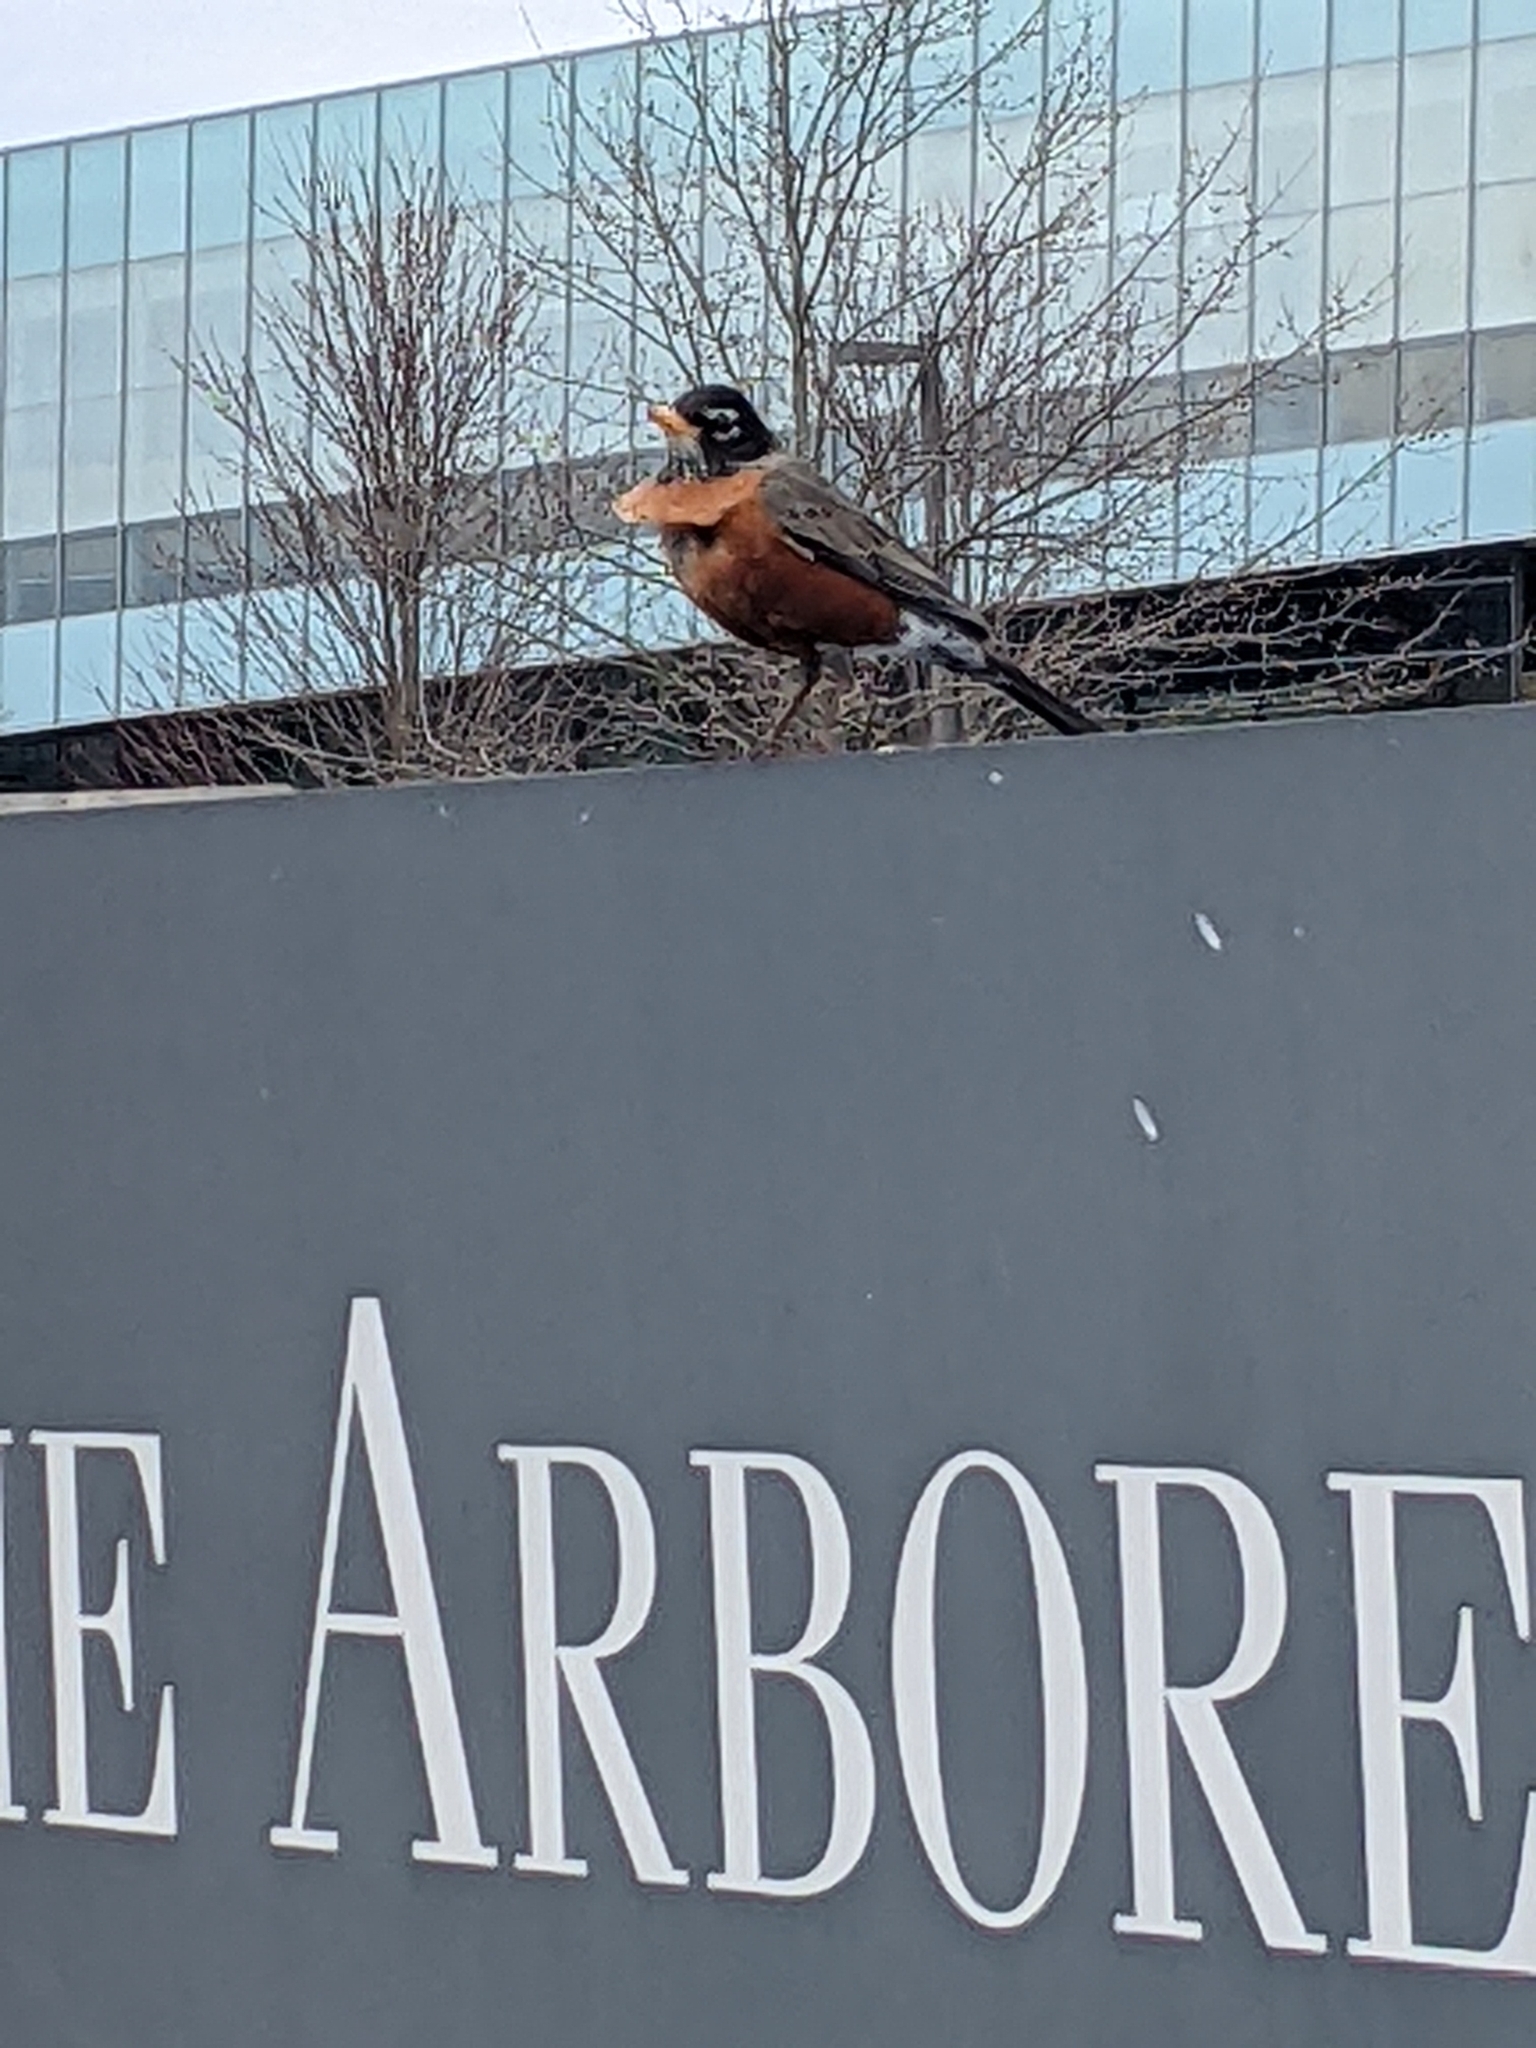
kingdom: Animalia
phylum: Chordata
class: Aves
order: Passeriformes
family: Turdidae
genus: Turdus
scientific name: Turdus migratorius
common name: American robin
